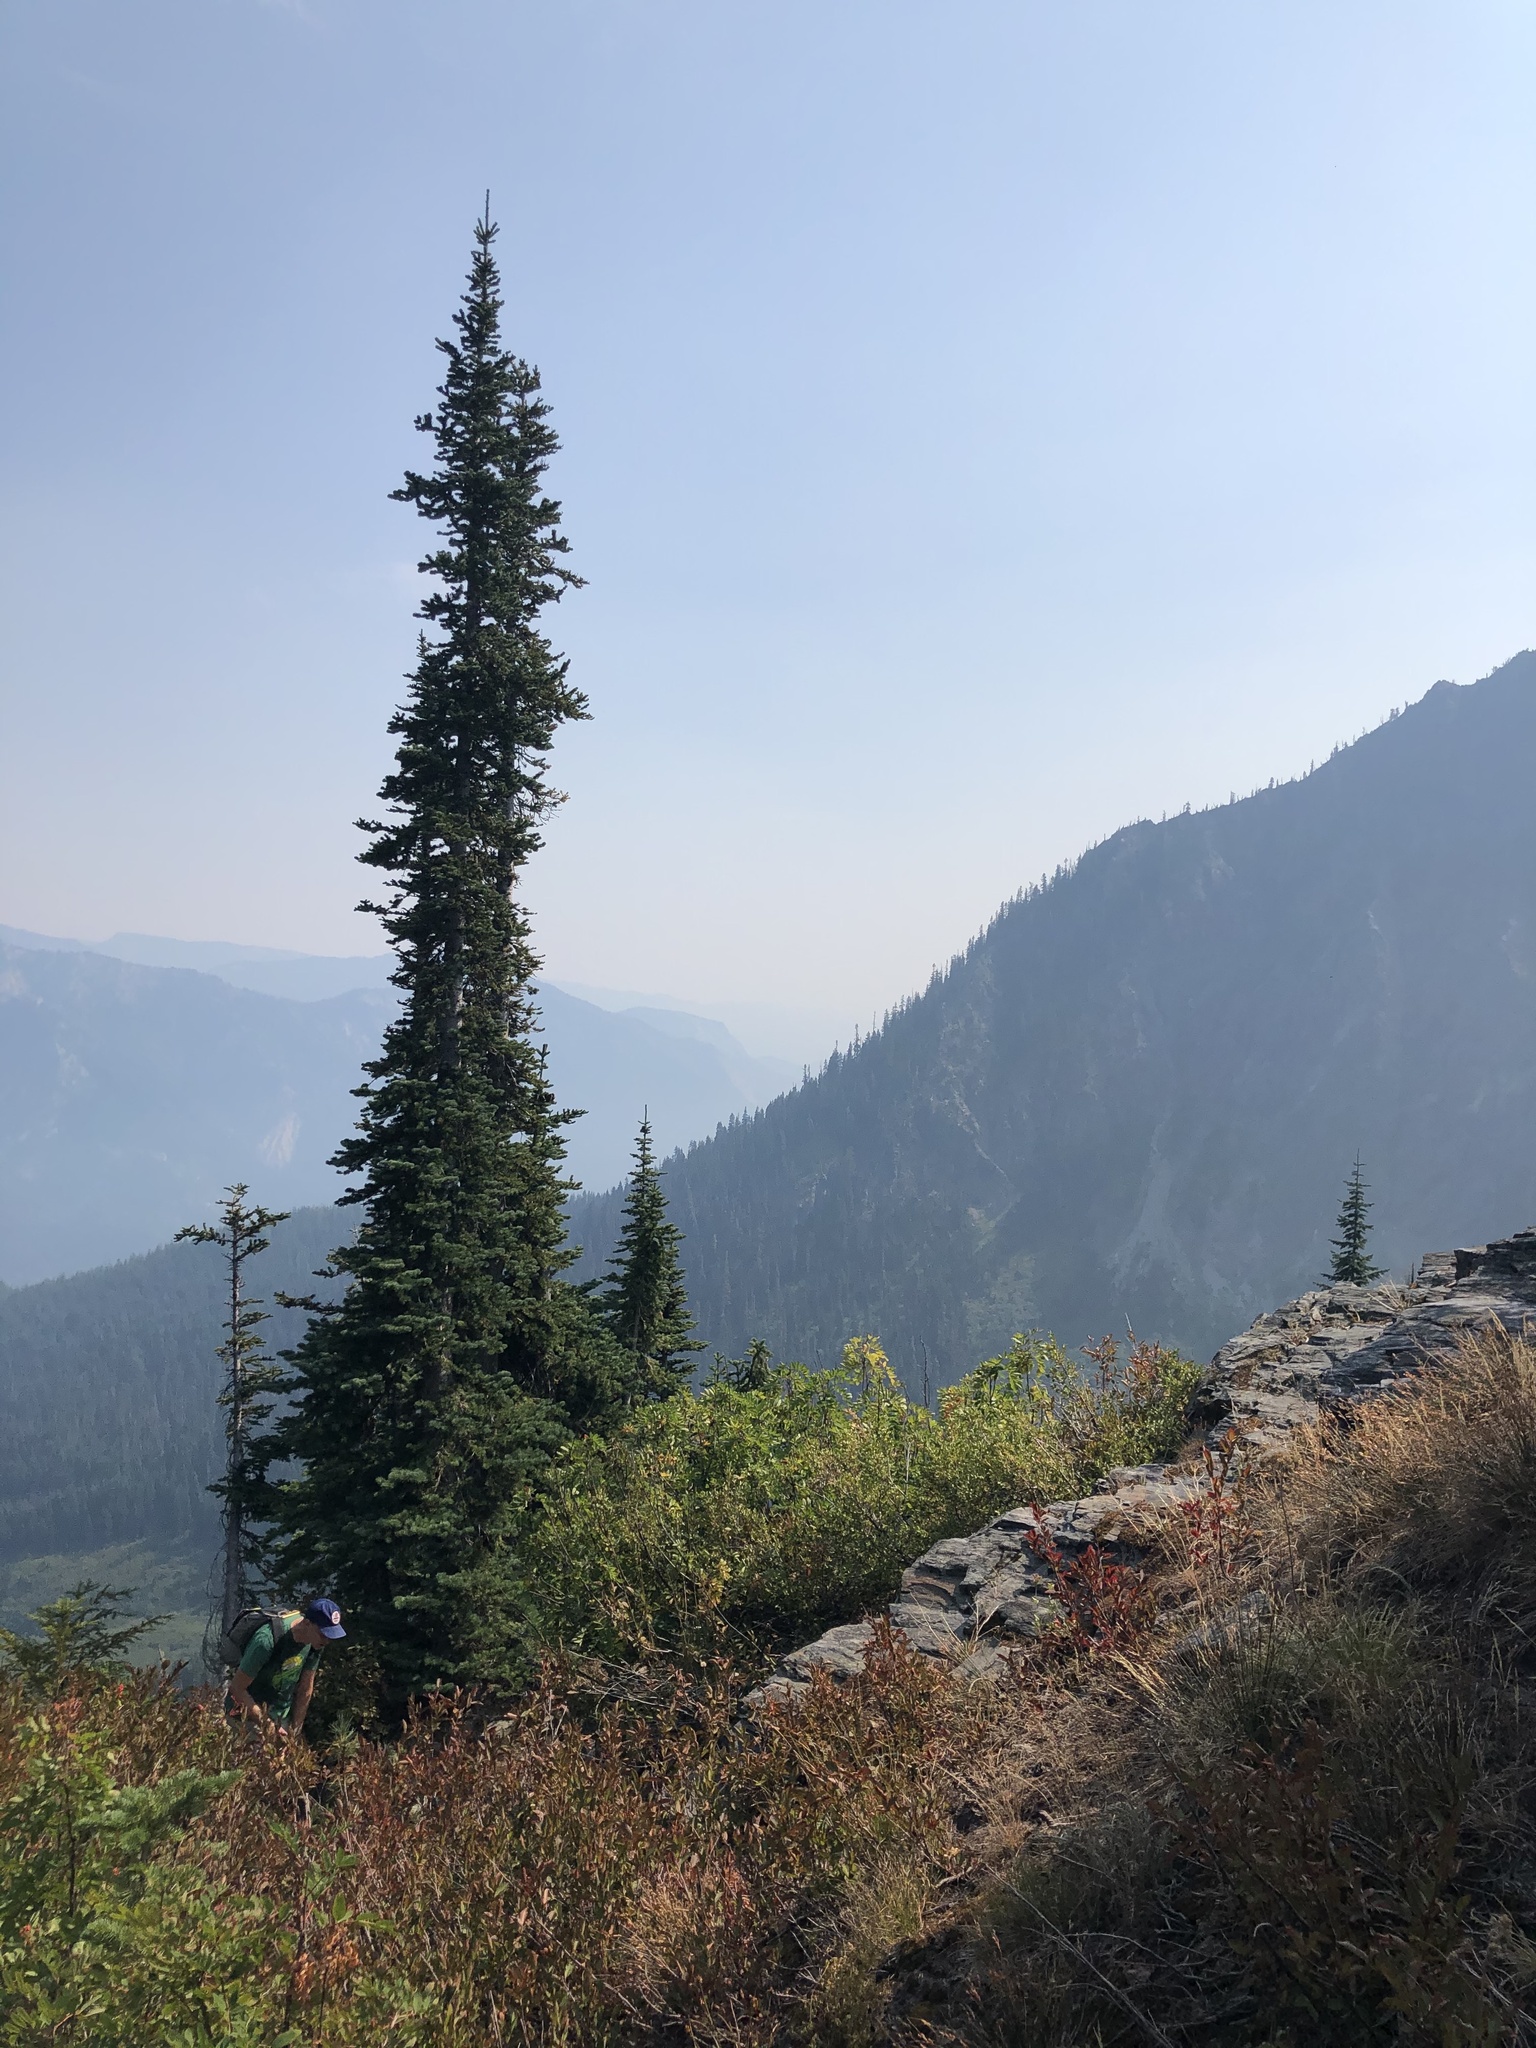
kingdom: Plantae
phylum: Tracheophyta
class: Pinopsida
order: Pinales
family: Pinaceae
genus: Abies
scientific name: Abies lasiocarpa
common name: Subalpine fir
